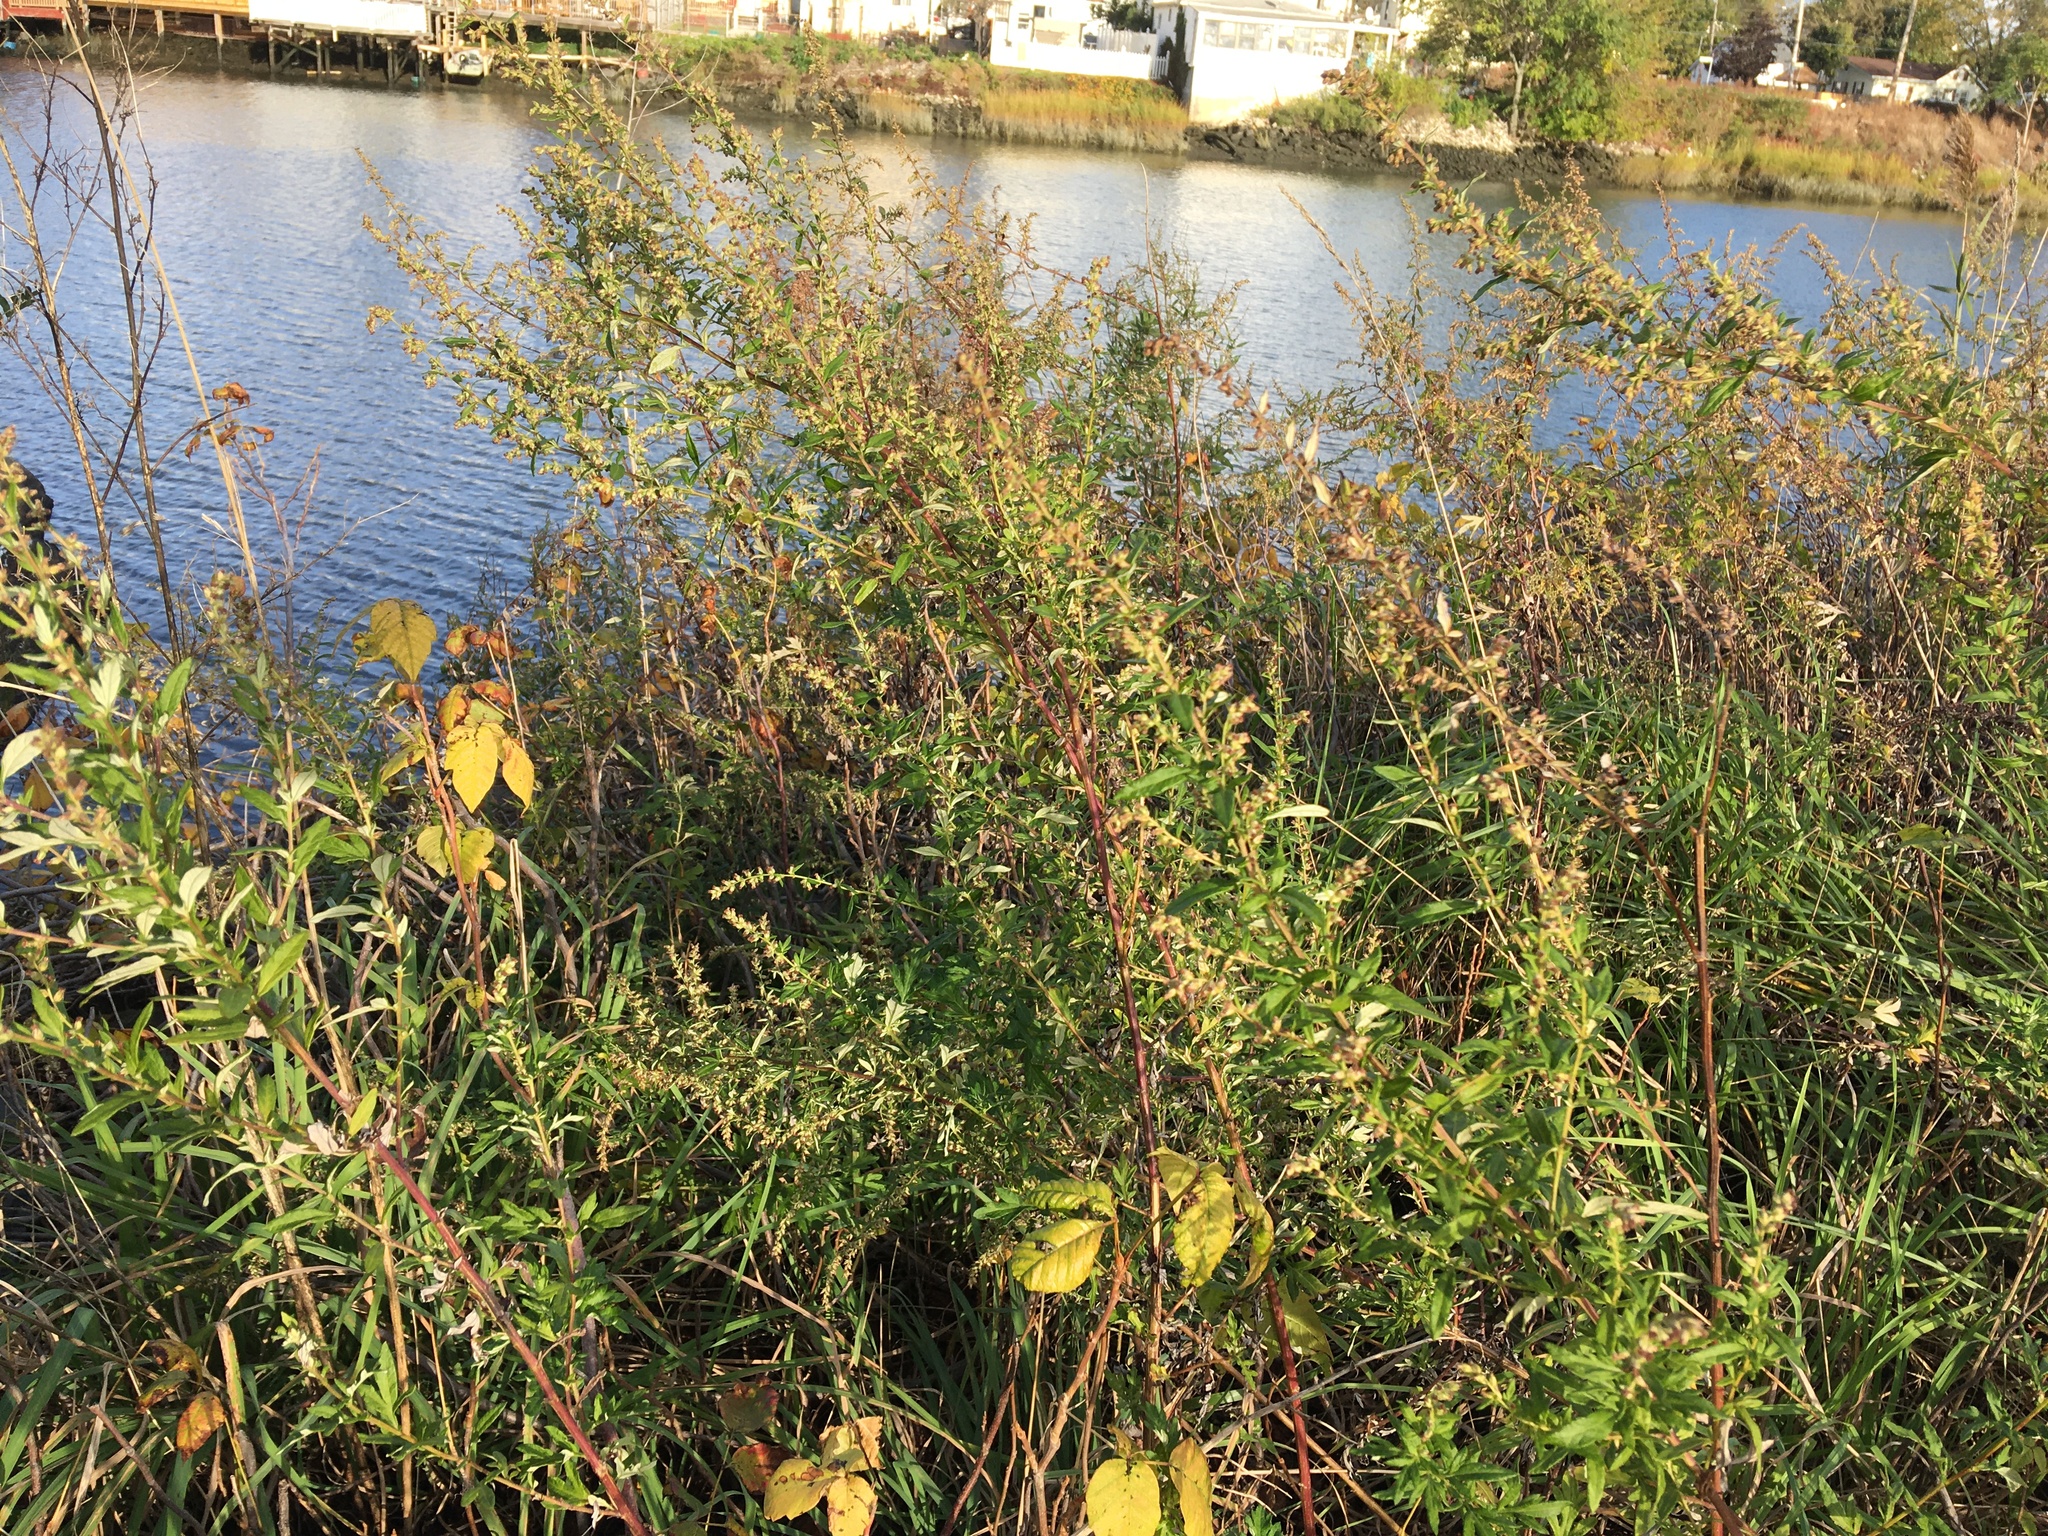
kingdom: Plantae
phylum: Tracheophyta
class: Magnoliopsida
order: Asterales
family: Asteraceae
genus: Artemisia
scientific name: Artemisia vulgaris
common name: Mugwort
